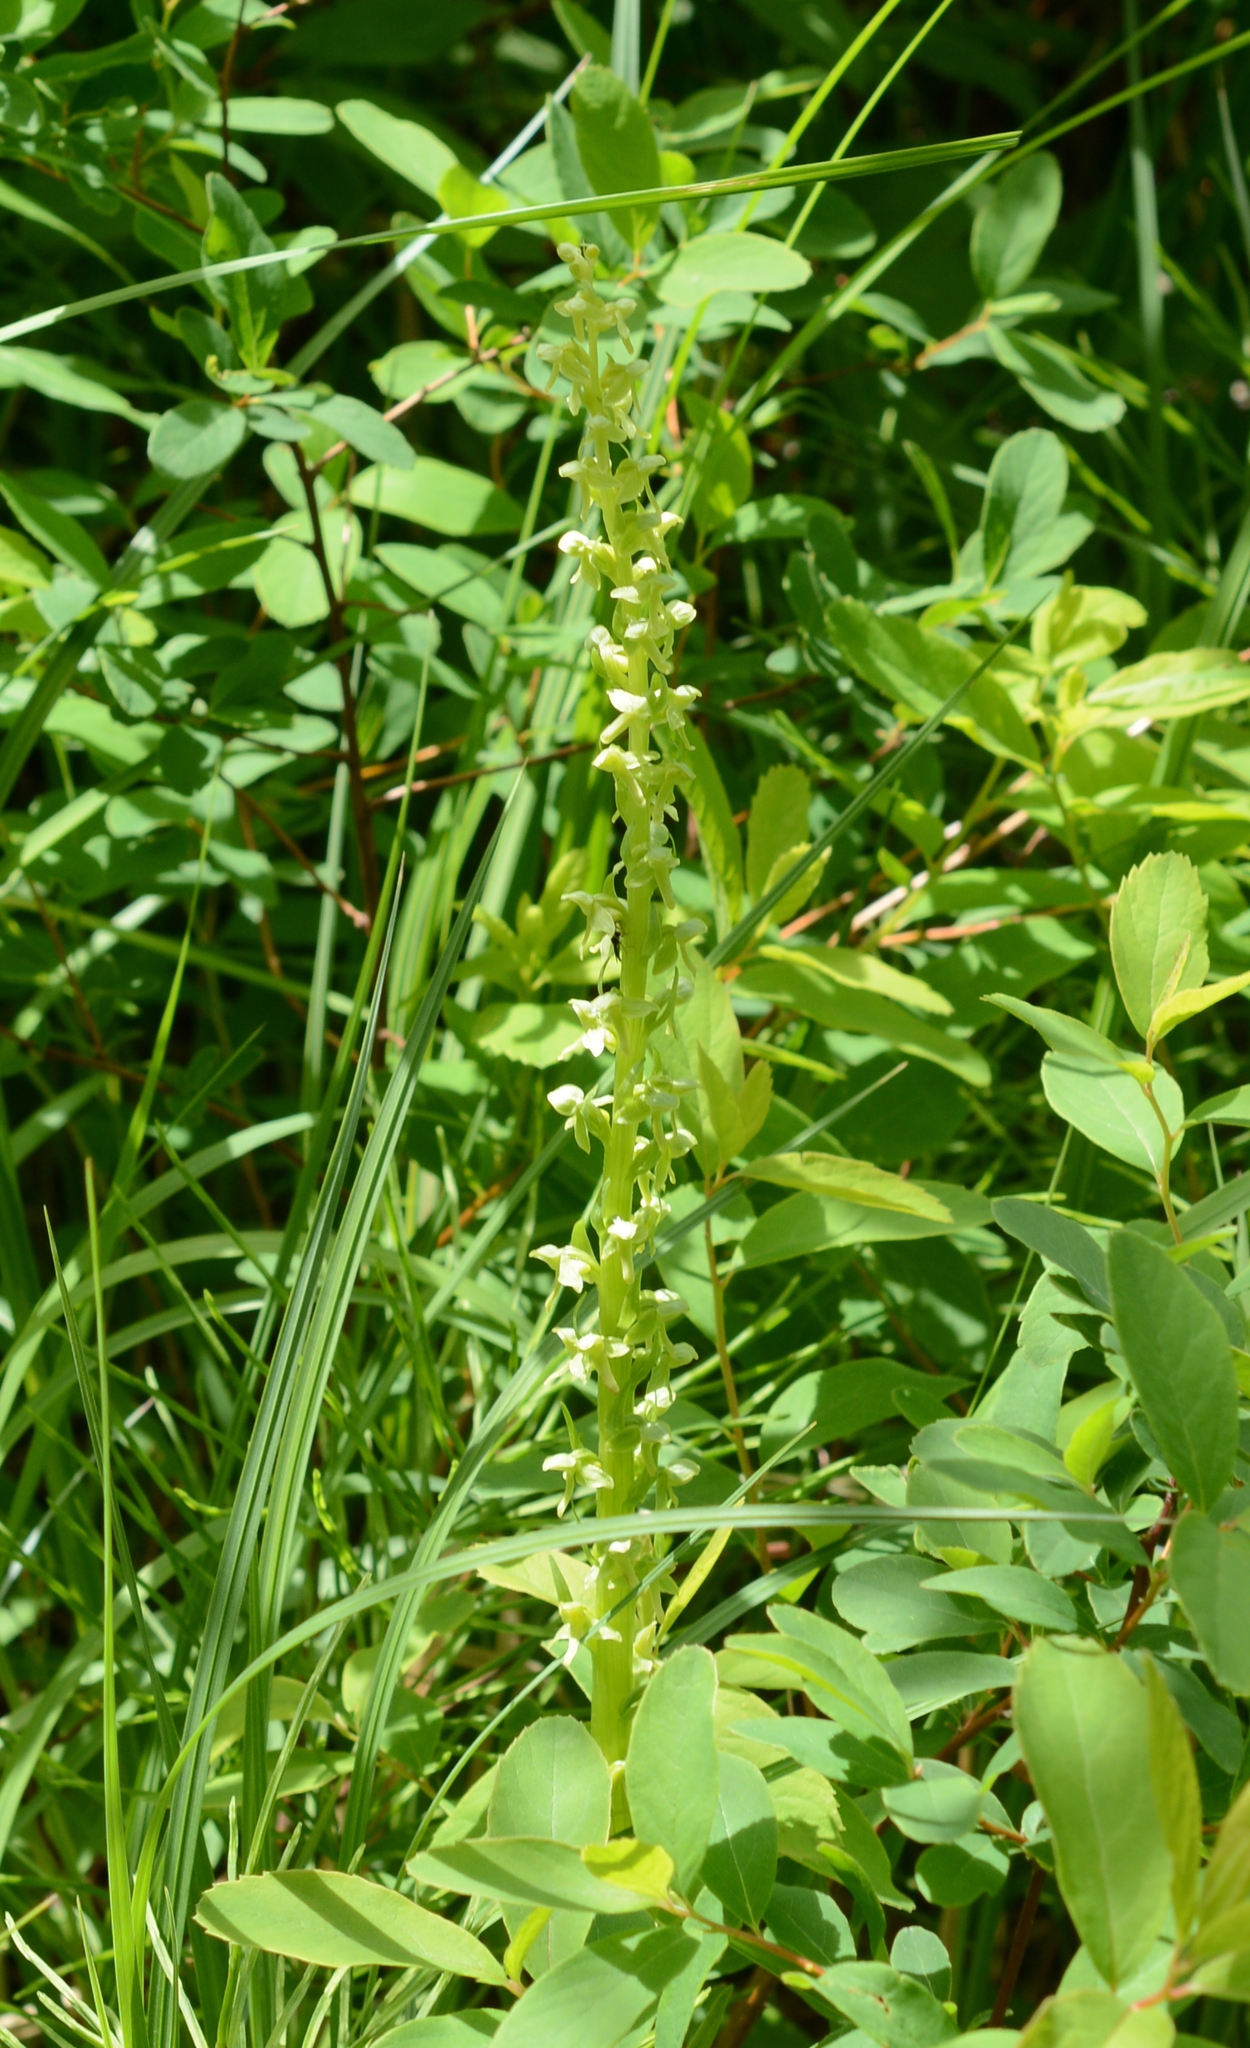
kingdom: Plantae
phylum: Tracheophyta
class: Liliopsida
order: Asparagales
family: Orchidaceae
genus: Platanthera
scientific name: Platanthera stricta
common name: Slender bog orchid
